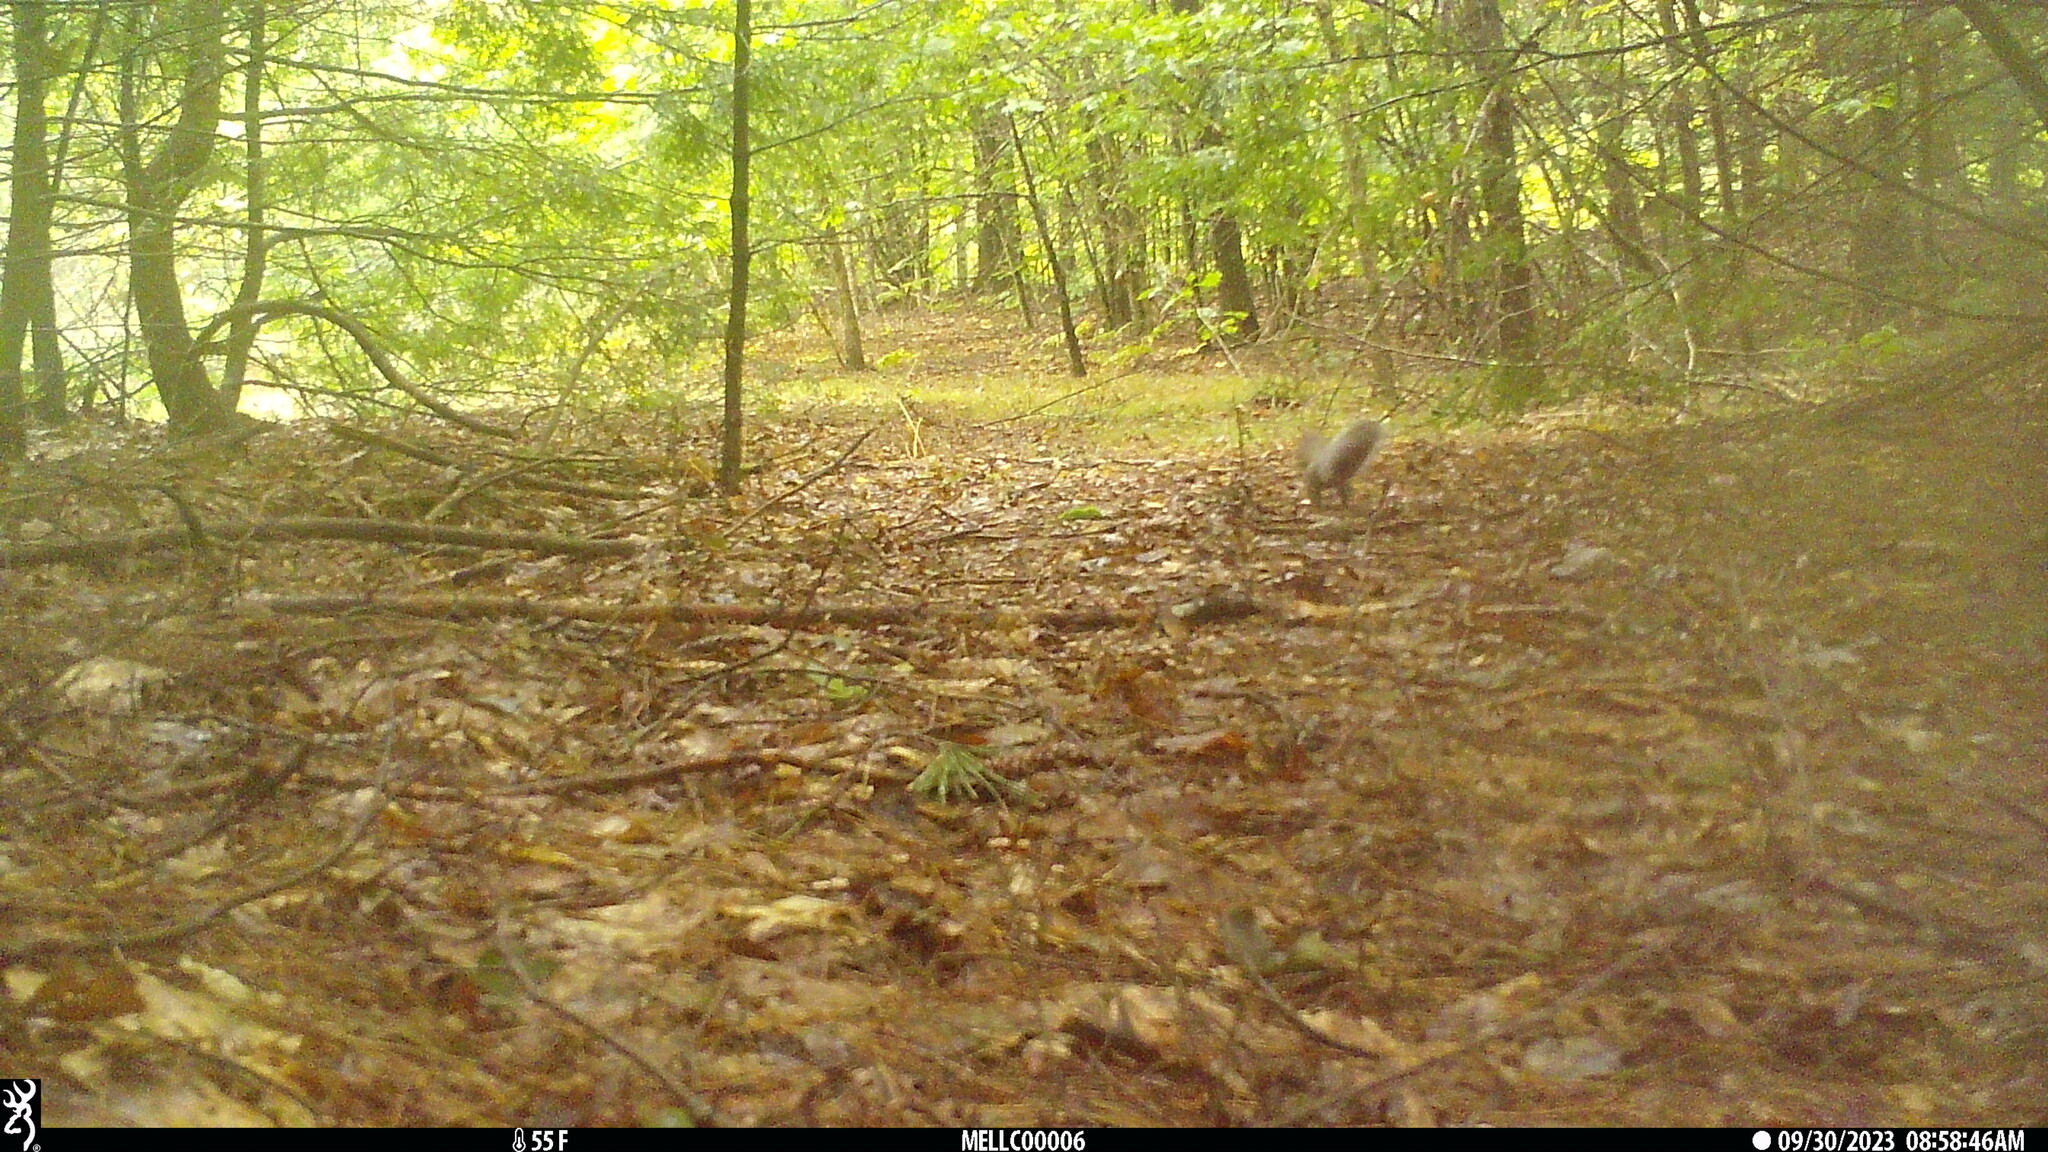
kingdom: Animalia
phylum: Chordata
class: Mammalia
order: Rodentia
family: Sciuridae
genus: Sciurus
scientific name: Sciurus carolinensis
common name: Eastern gray squirrel
